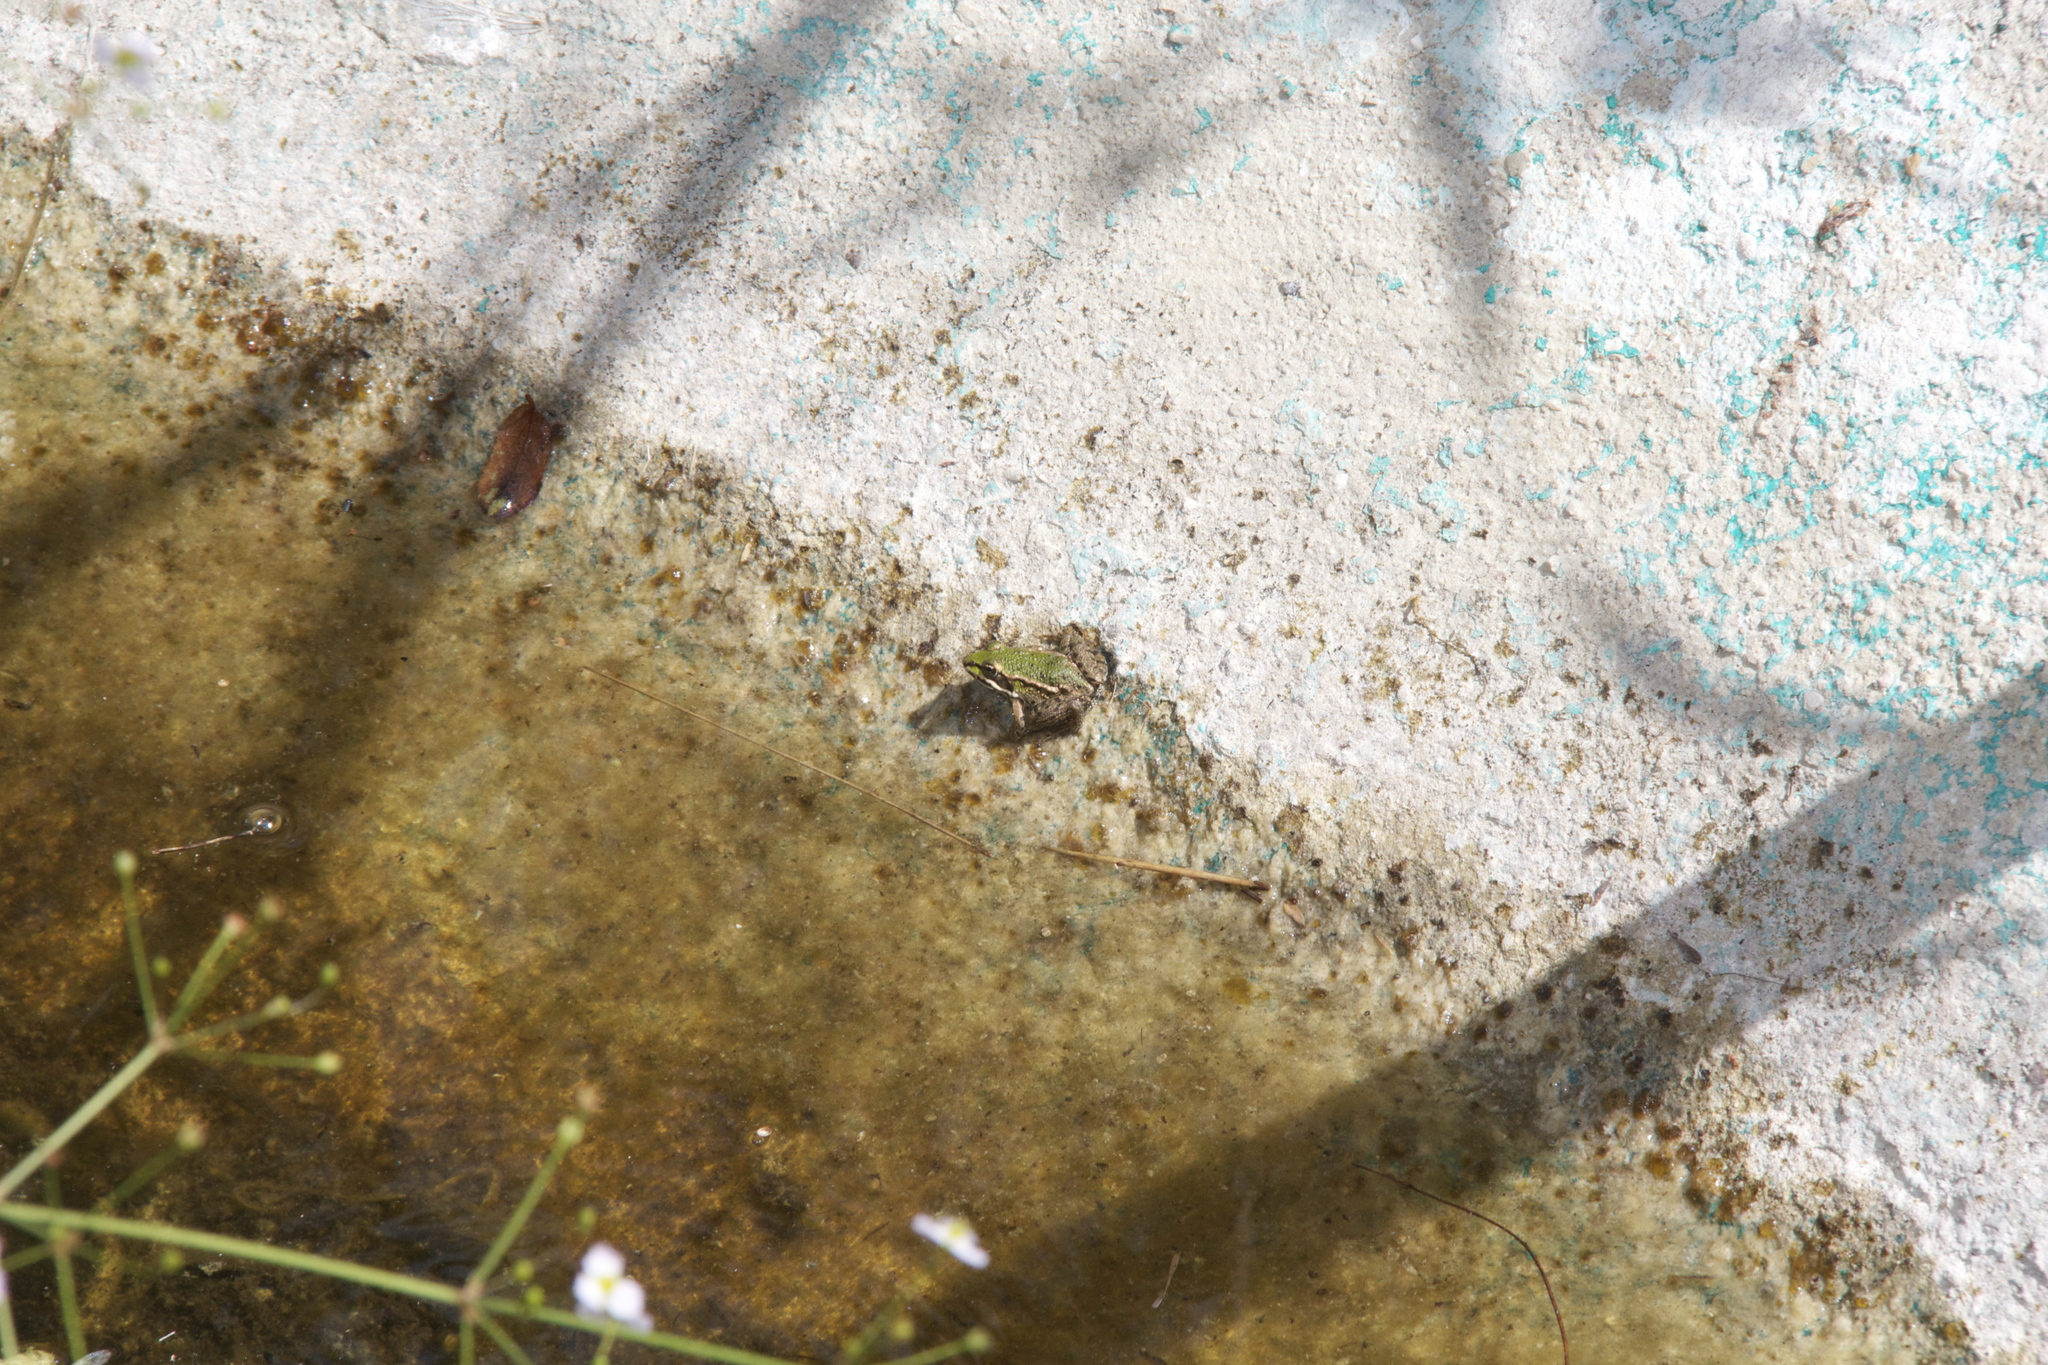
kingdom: Animalia
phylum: Chordata
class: Amphibia
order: Anura
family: Ranidae
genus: Pelophylax
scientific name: Pelophylax
